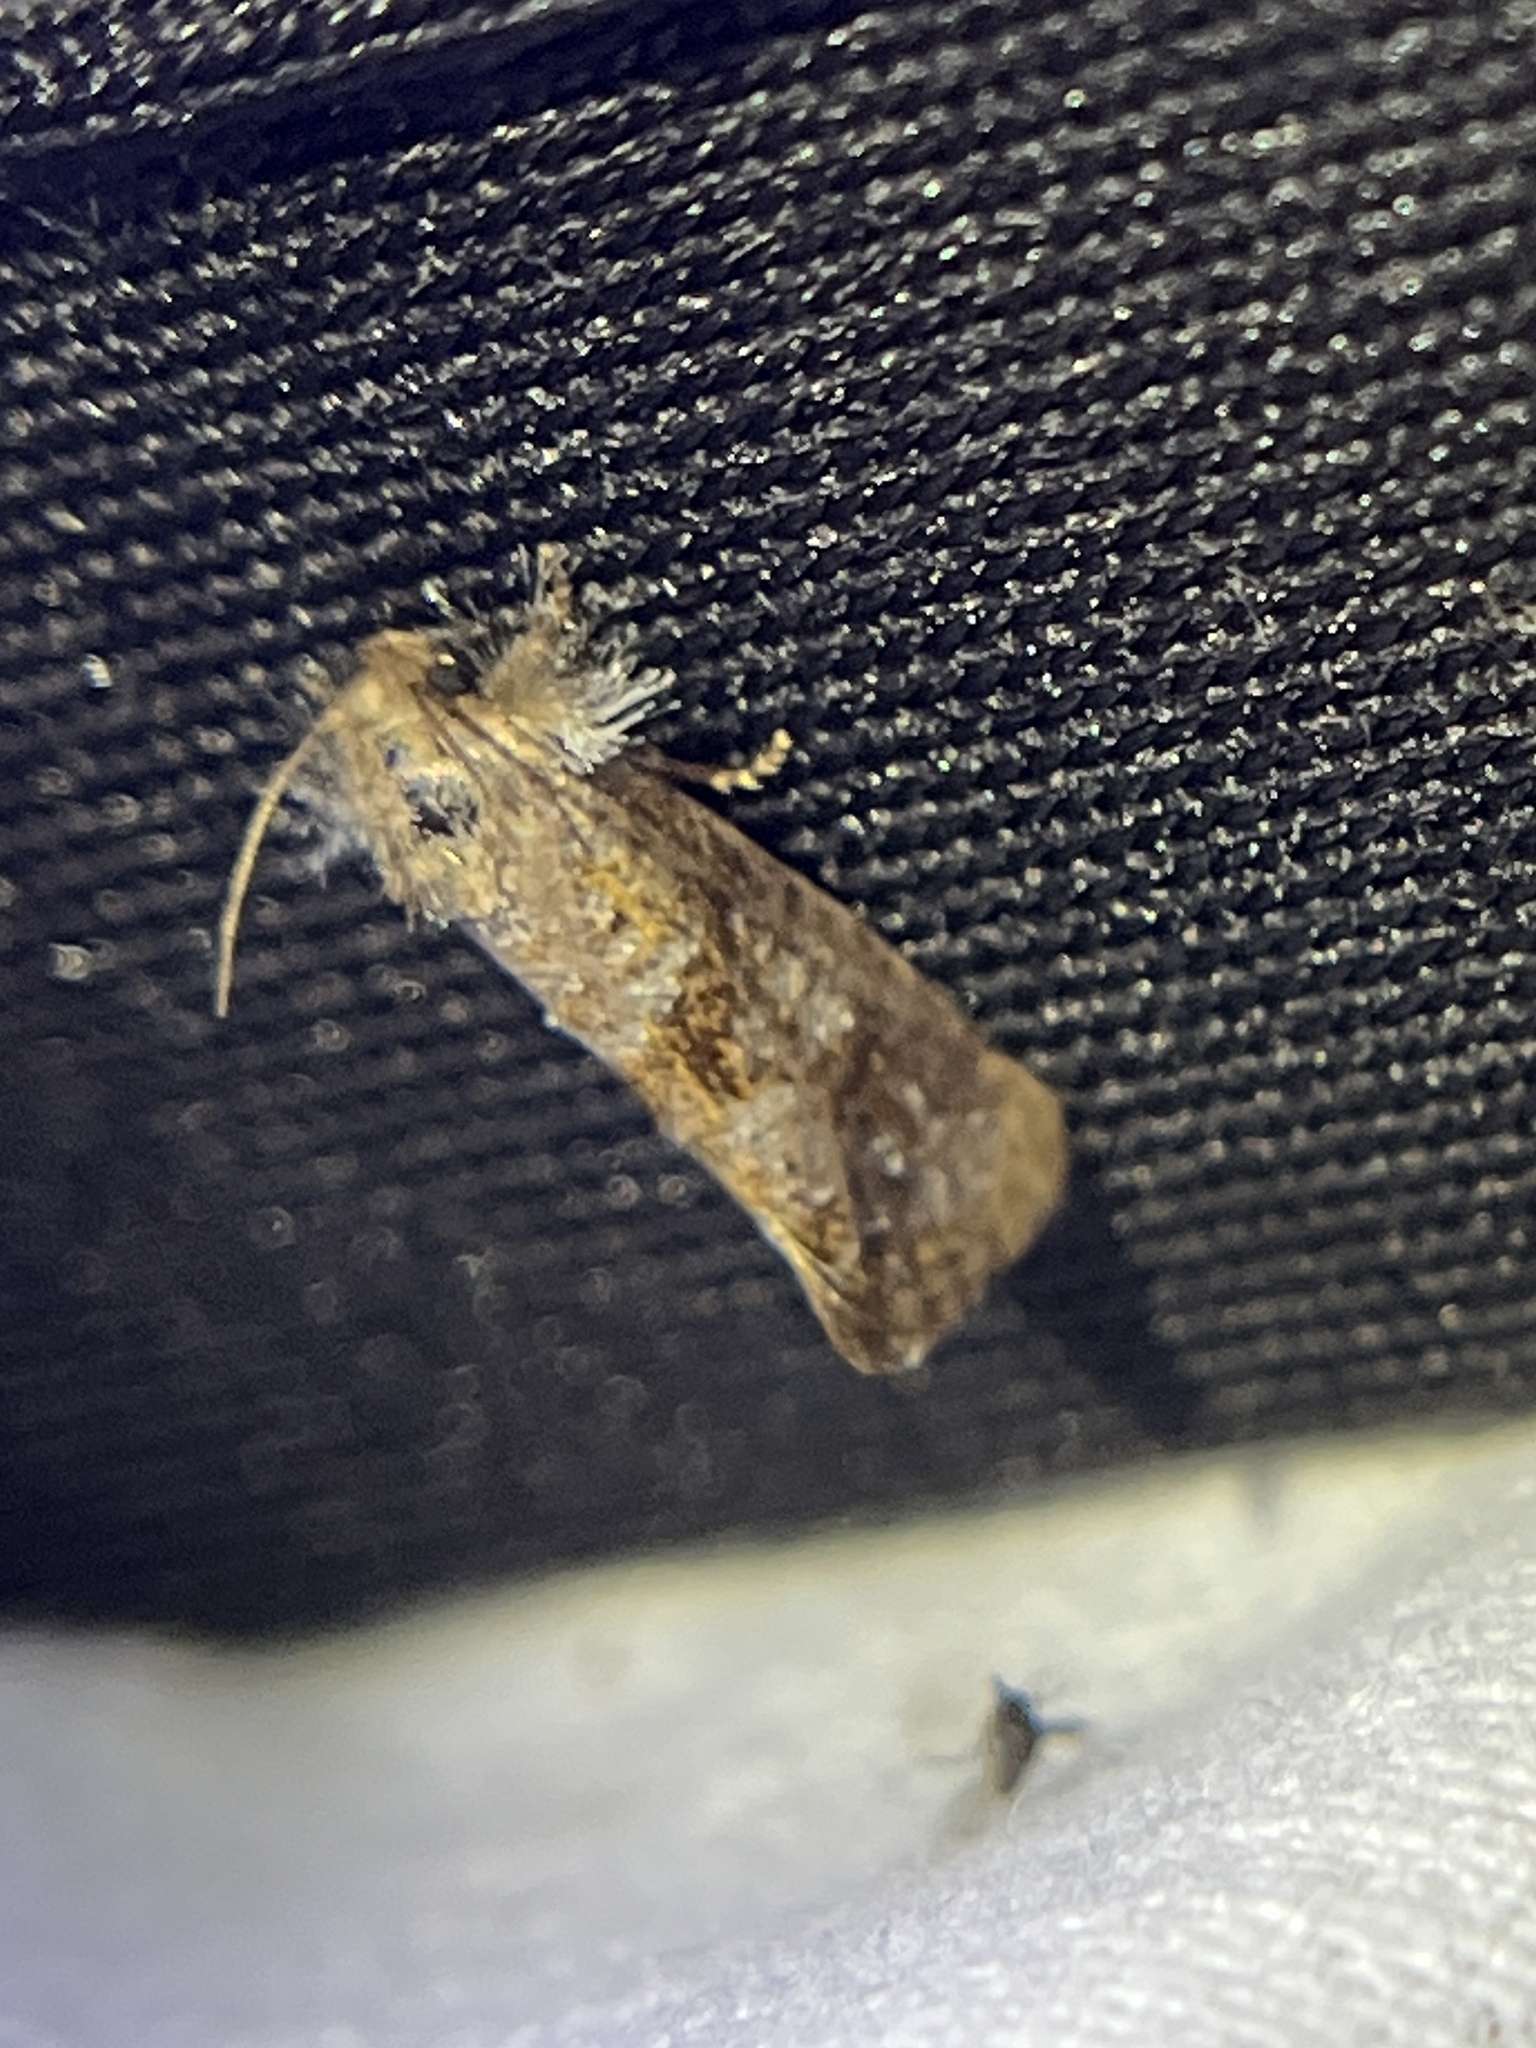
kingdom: Animalia
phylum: Arthropoda
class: Insecta
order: Lepidoptera
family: Tineidae
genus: Acrolophus
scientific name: Acrolophus panamae
